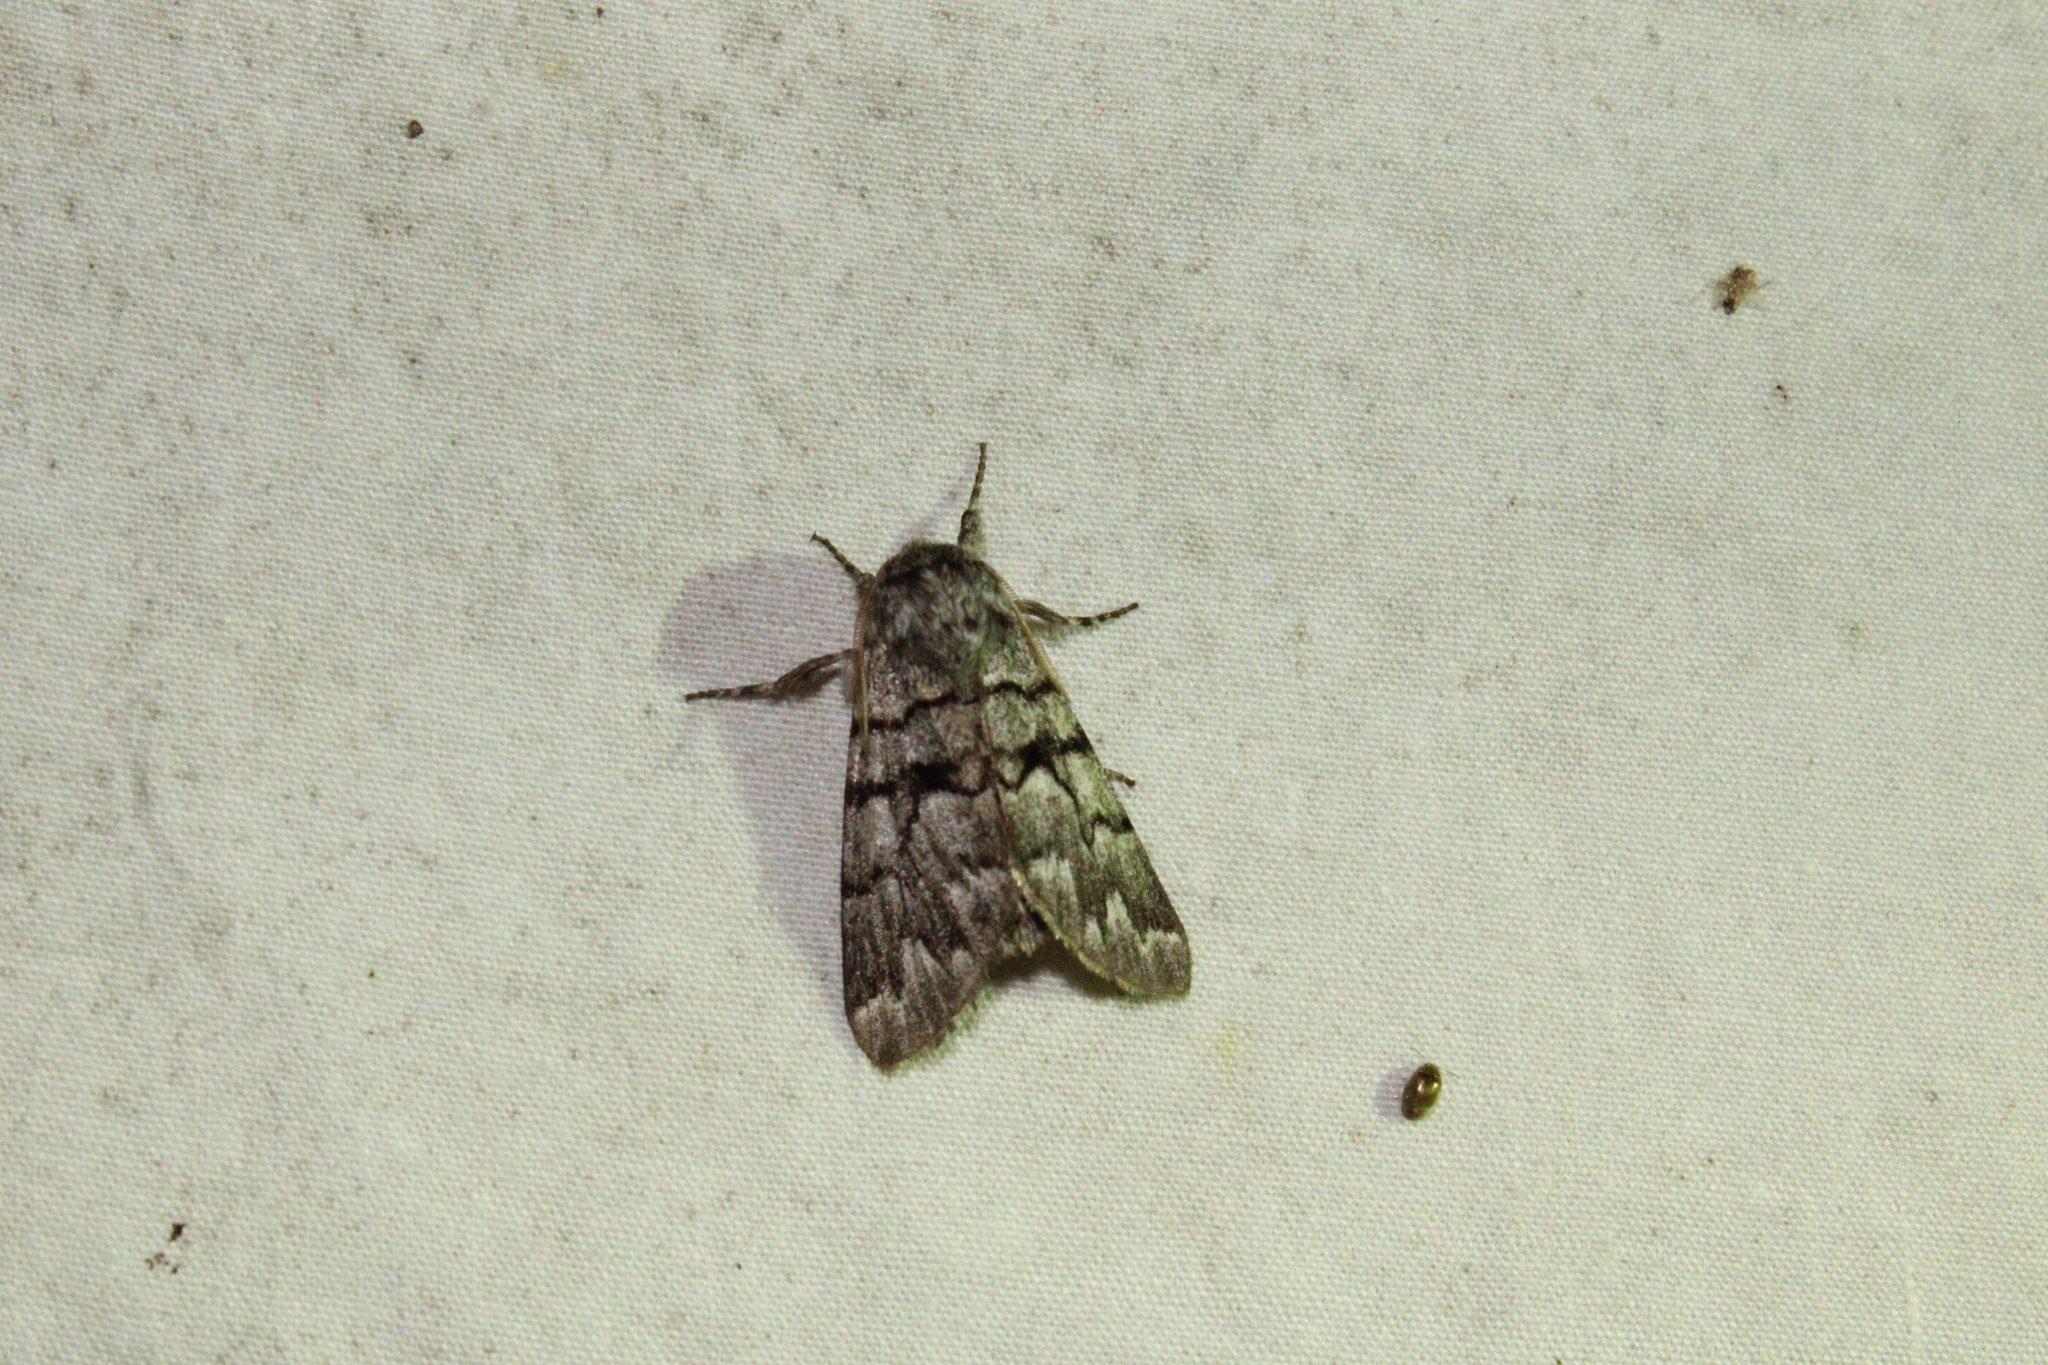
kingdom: Animalia
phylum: Arthropoda
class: Insecta
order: Lepidoptera
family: Noctuidae
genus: Panthea
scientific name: Panthea furcilla
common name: Eastern panthea moth
